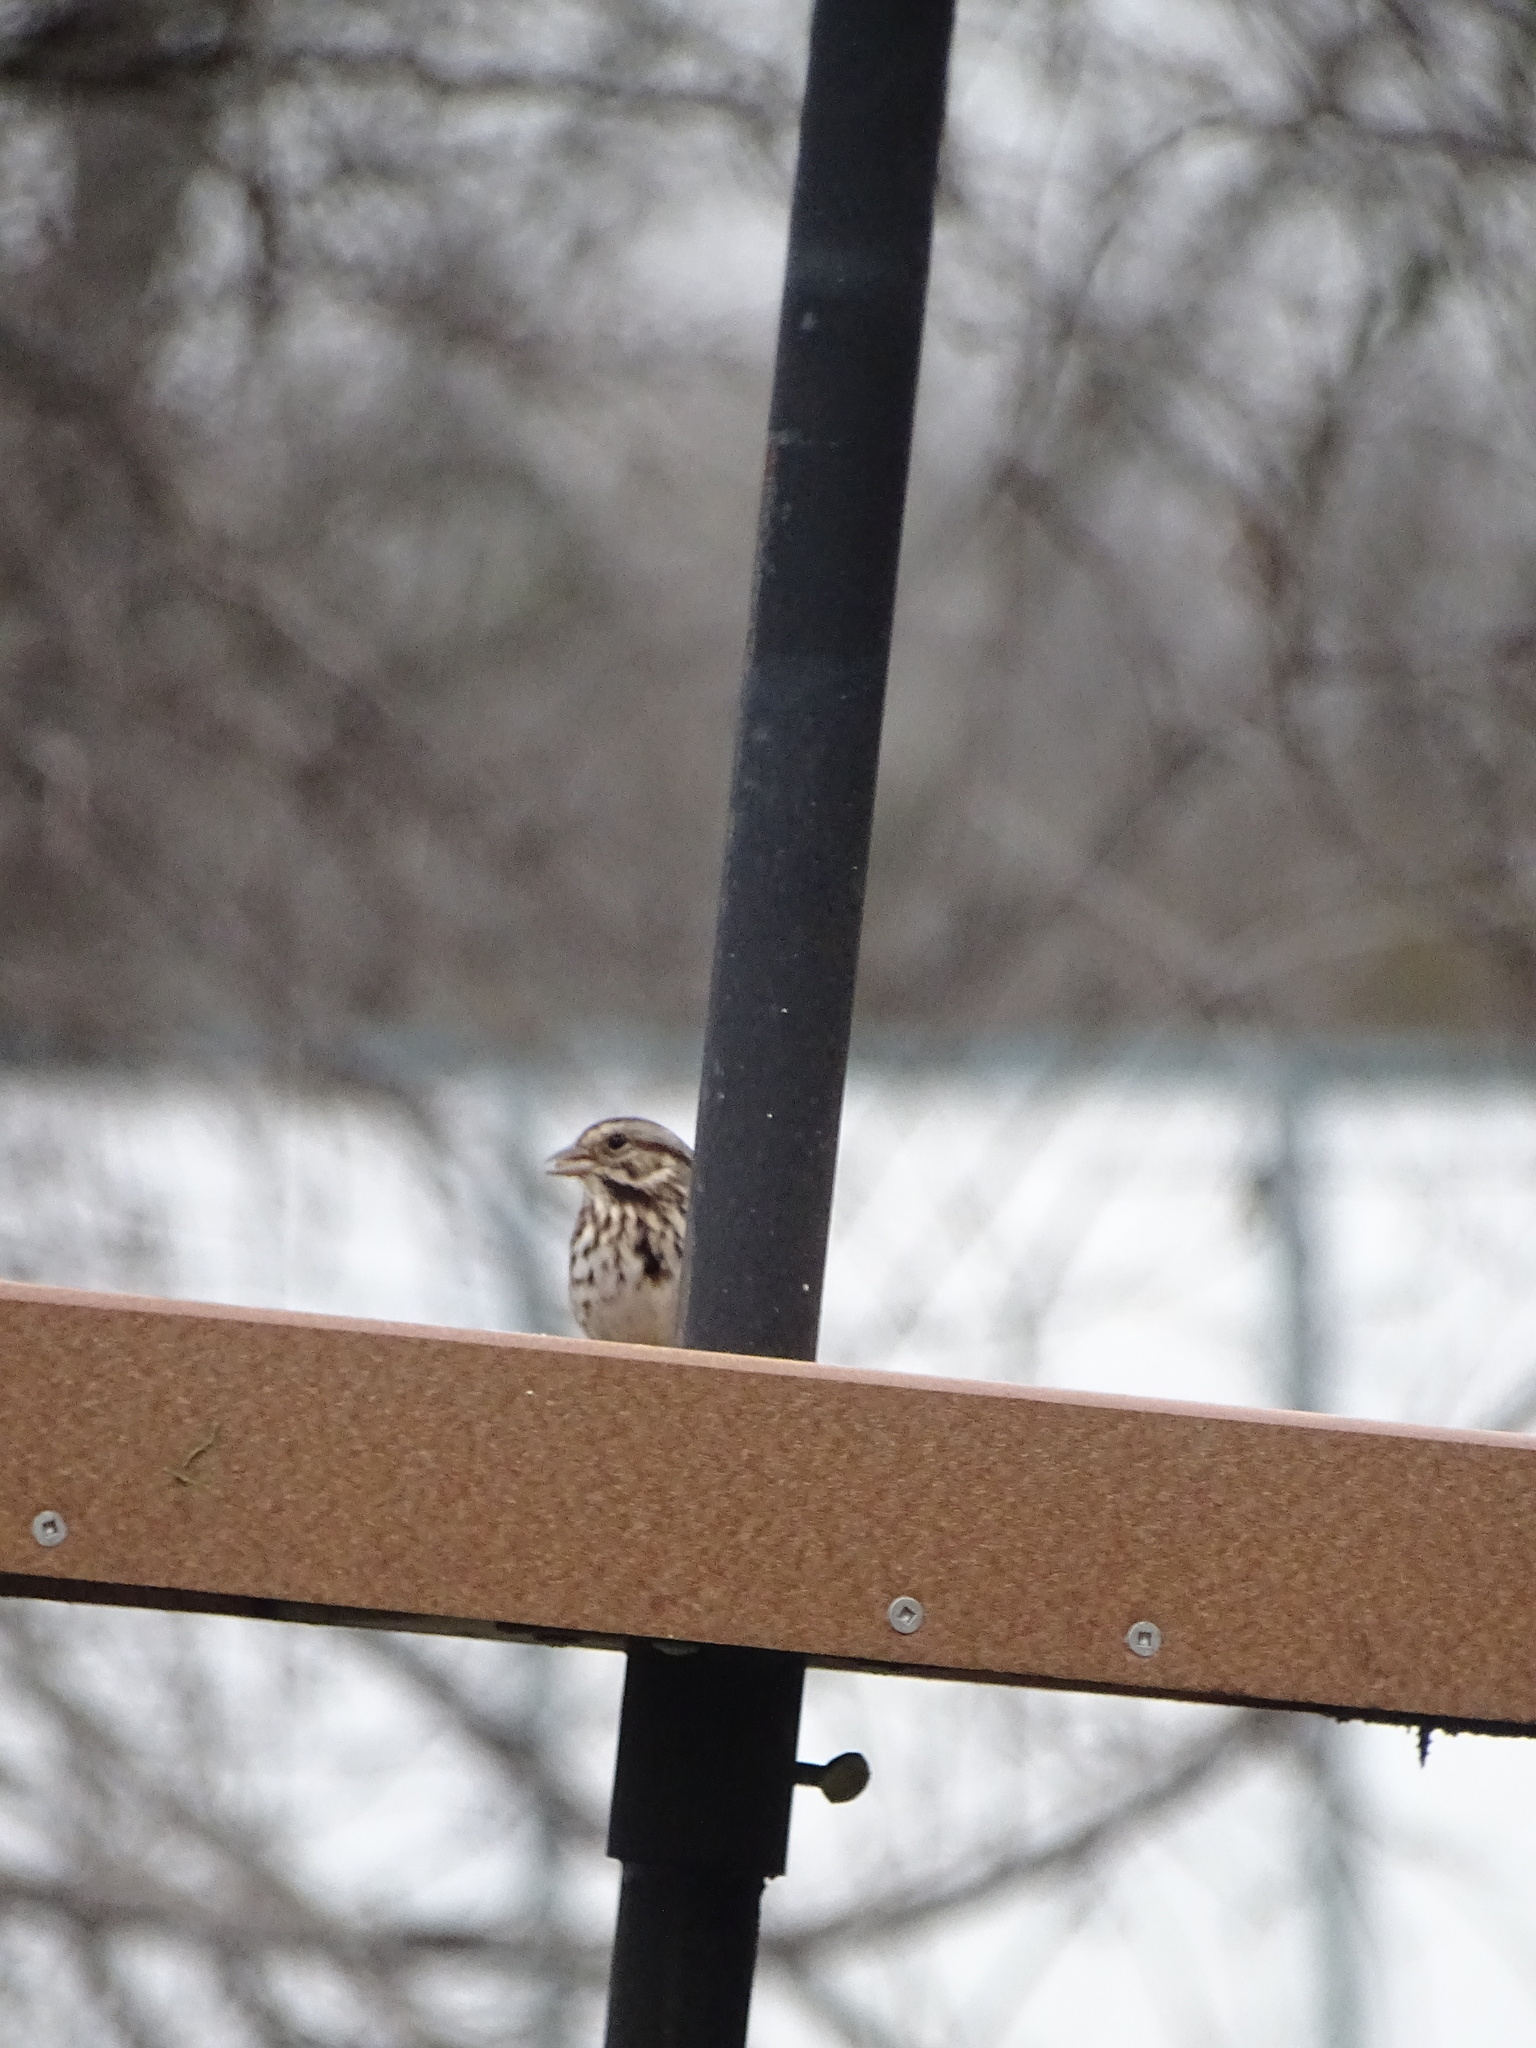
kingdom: Animalia
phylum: Chordata
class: Aves
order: Passeriformes
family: Passerellidae
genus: Melospiza
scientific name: Melospiza melodia
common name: Song sparrow
